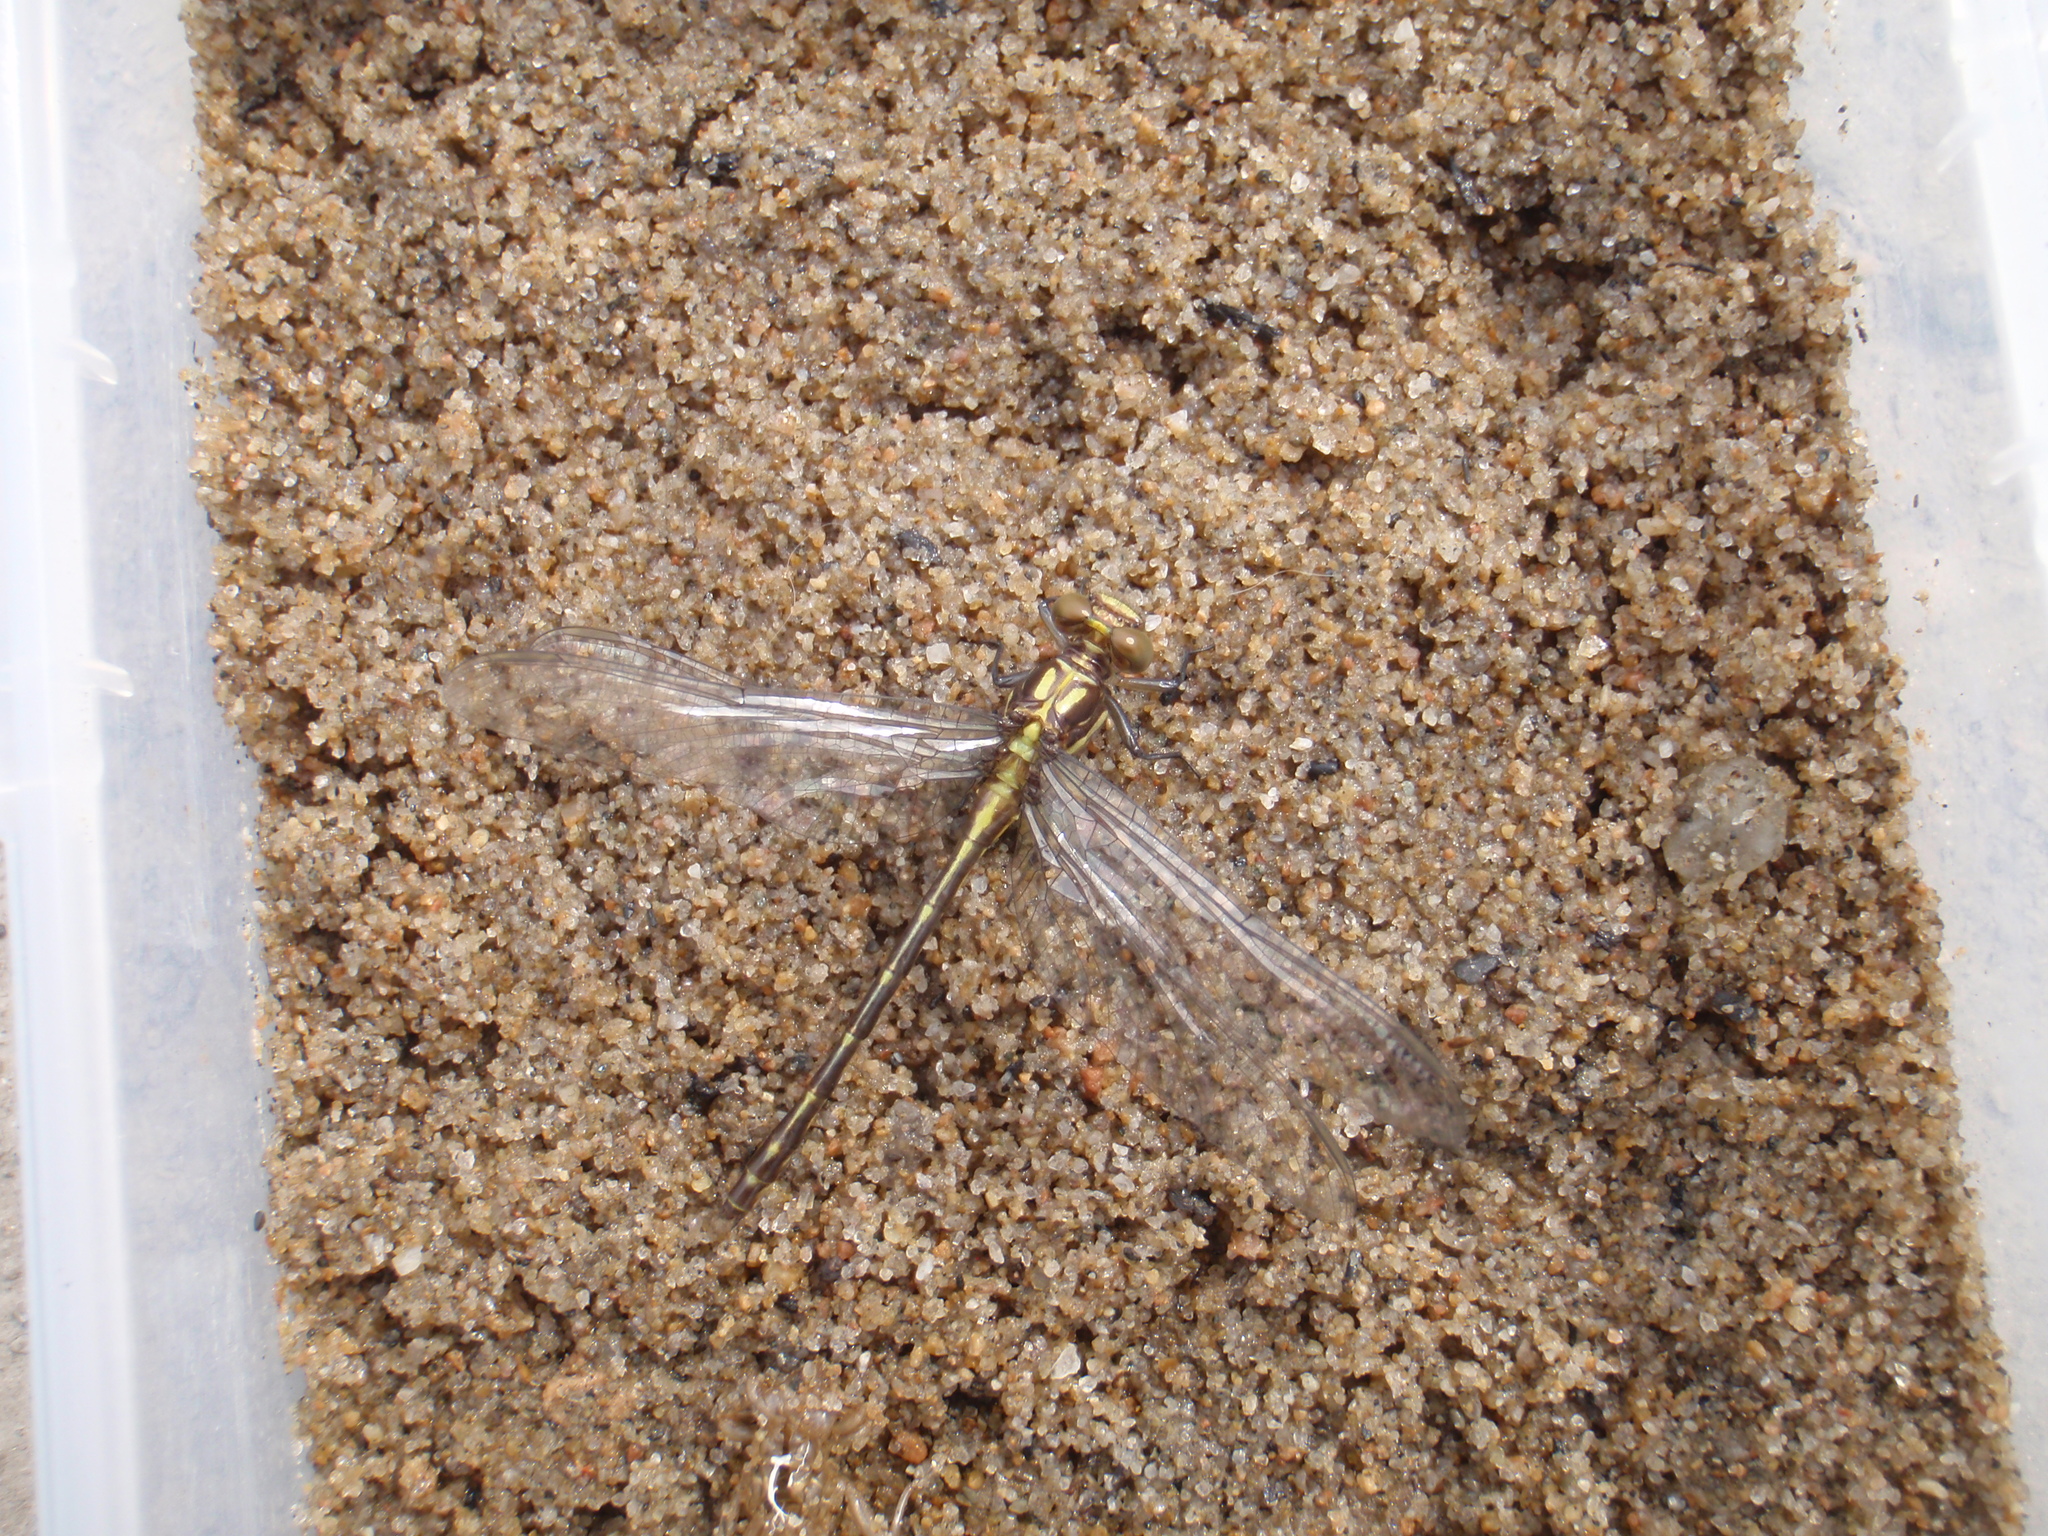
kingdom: Animalia
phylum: Arthropoda
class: Insecta
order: Odonata
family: Gomphidae
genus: Stylurus
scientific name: Stylurus amnicola
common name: Riverine clubtail
